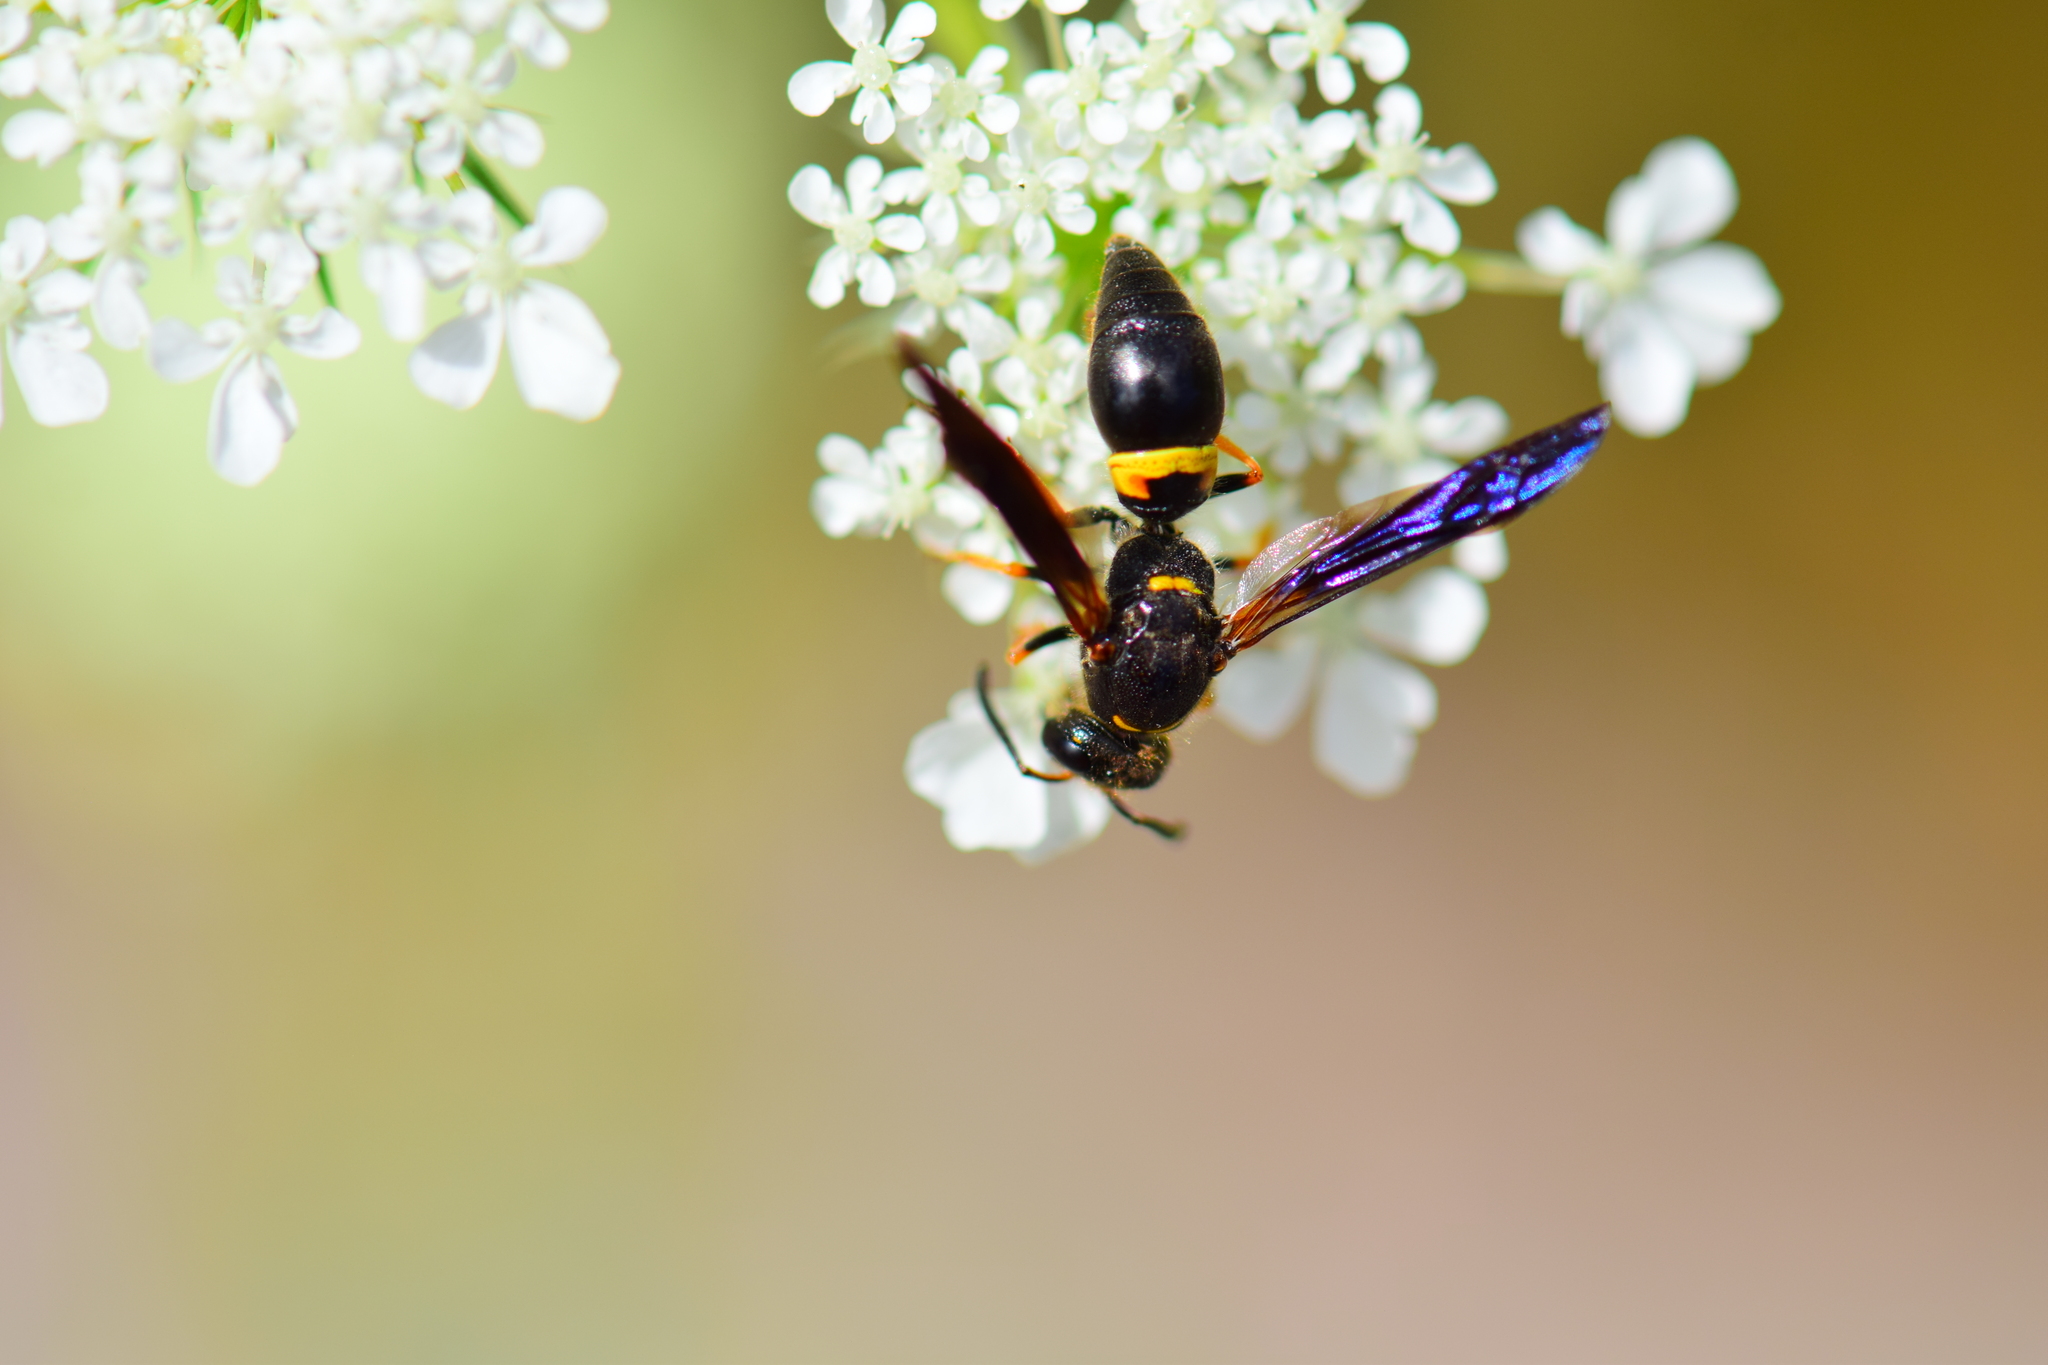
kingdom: Animalia
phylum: Arthropoda
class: Insecta
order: Hymenoptera
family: Vespidae
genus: Ancistrocerus
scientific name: Ancistrocerus unifasciatus
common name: One-banded mason wasp
